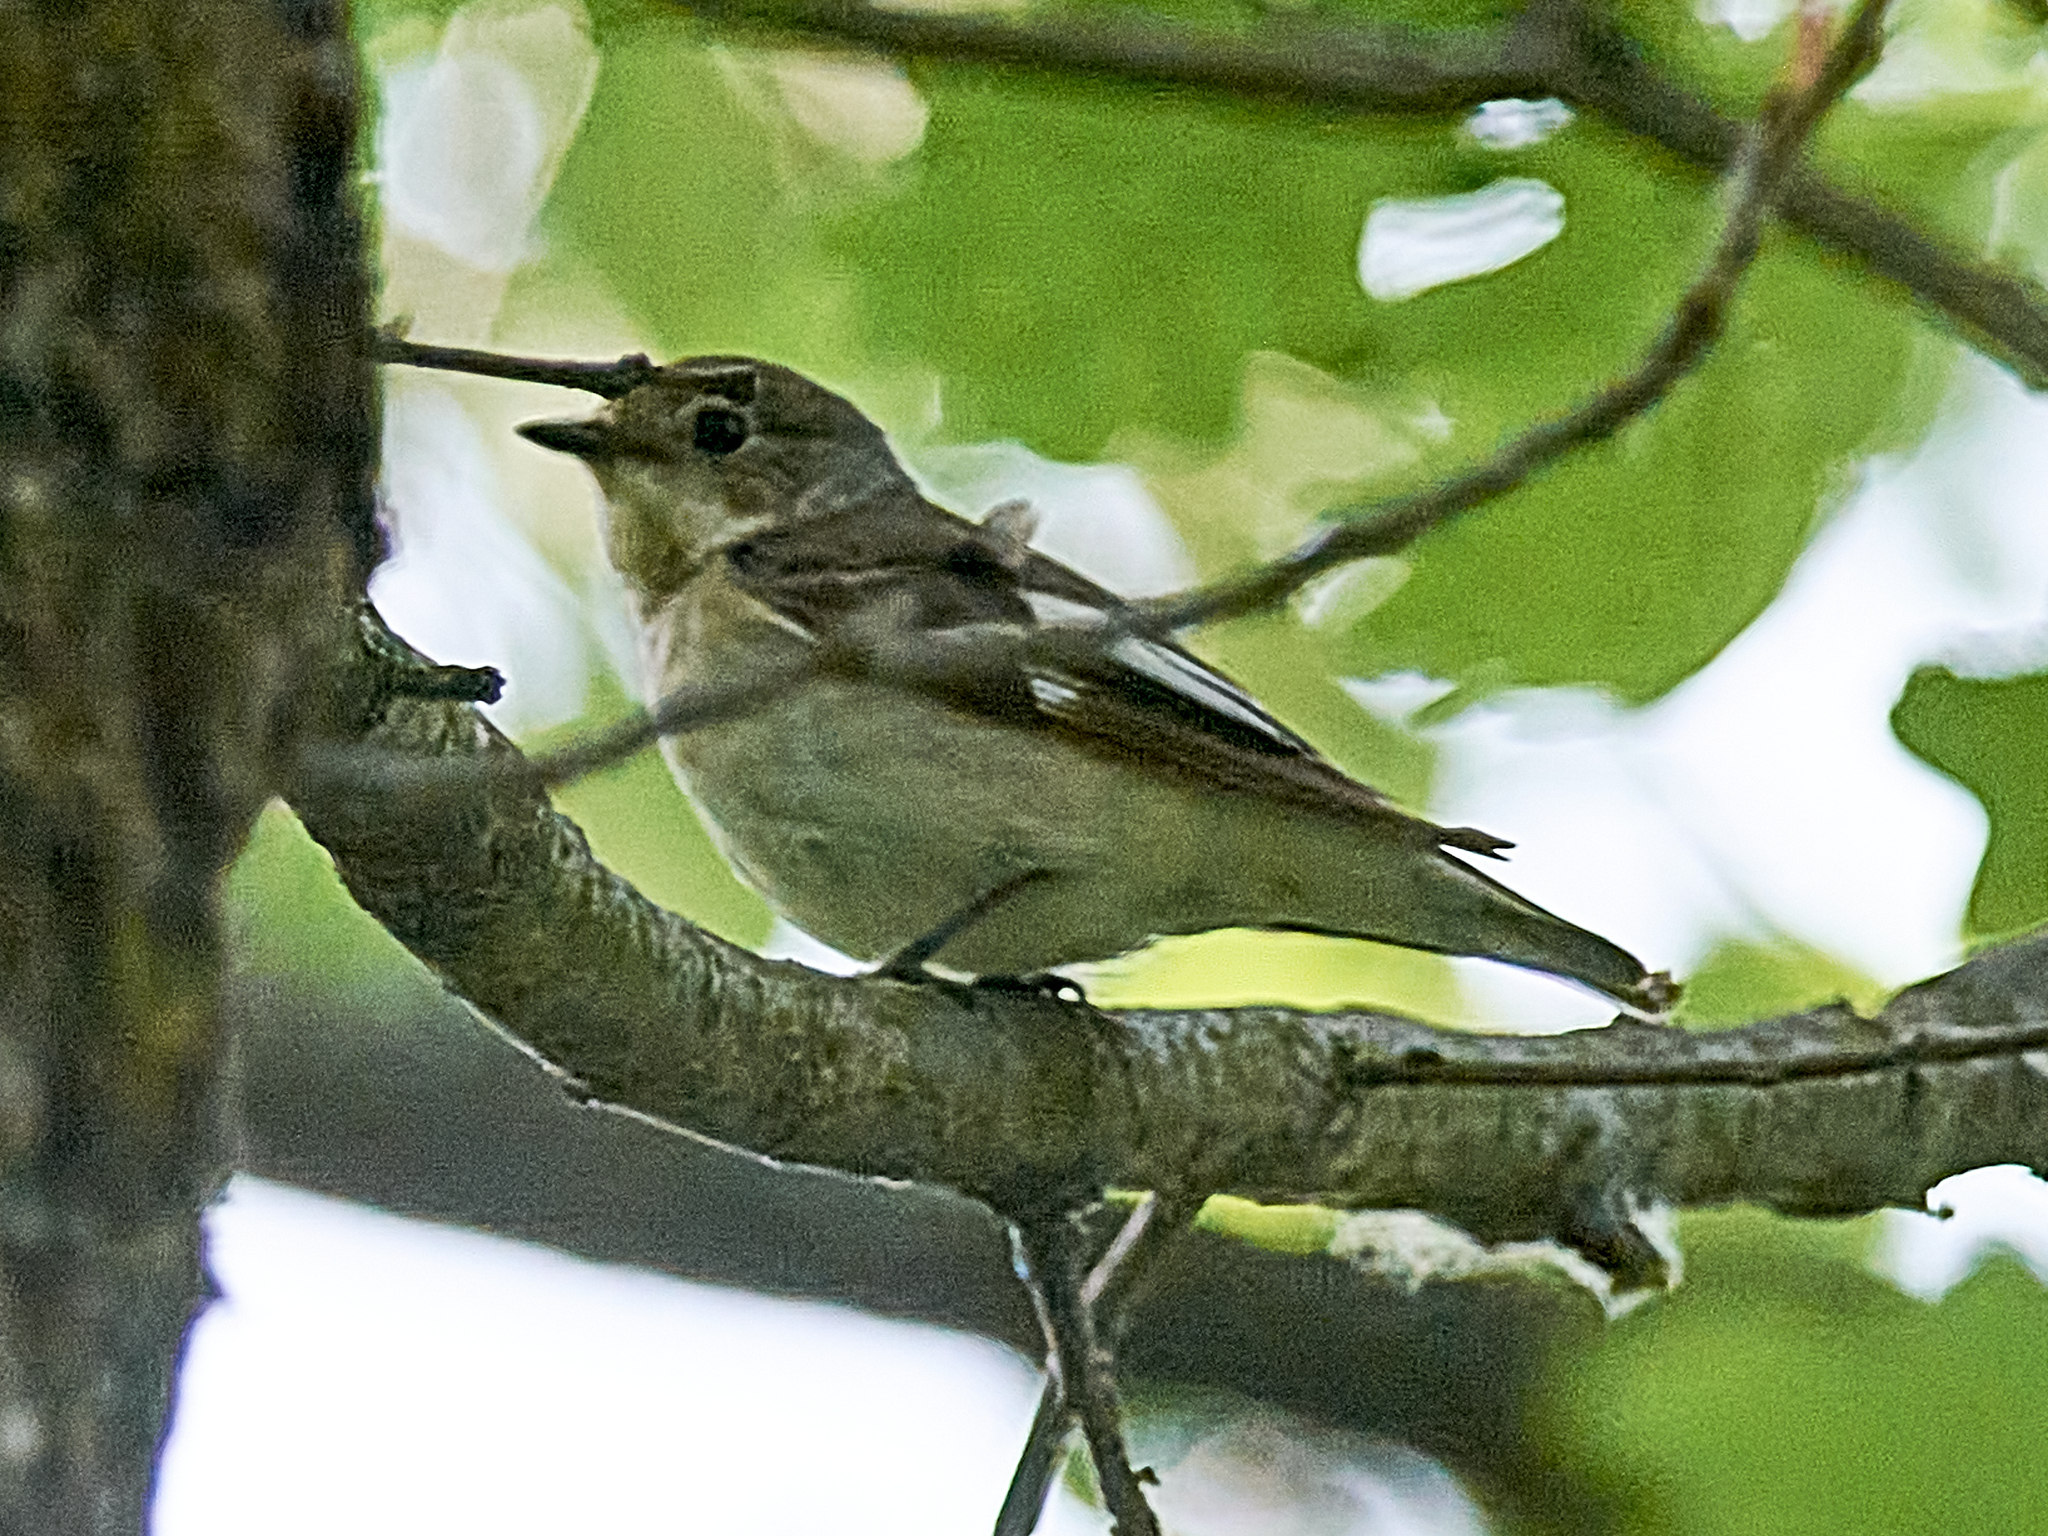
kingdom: Animalia
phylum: Chordata
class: Aves
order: Passeriformes
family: Muscicapidae
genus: Ficedula
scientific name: Ficedula albicollis
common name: Collared flycatcher
